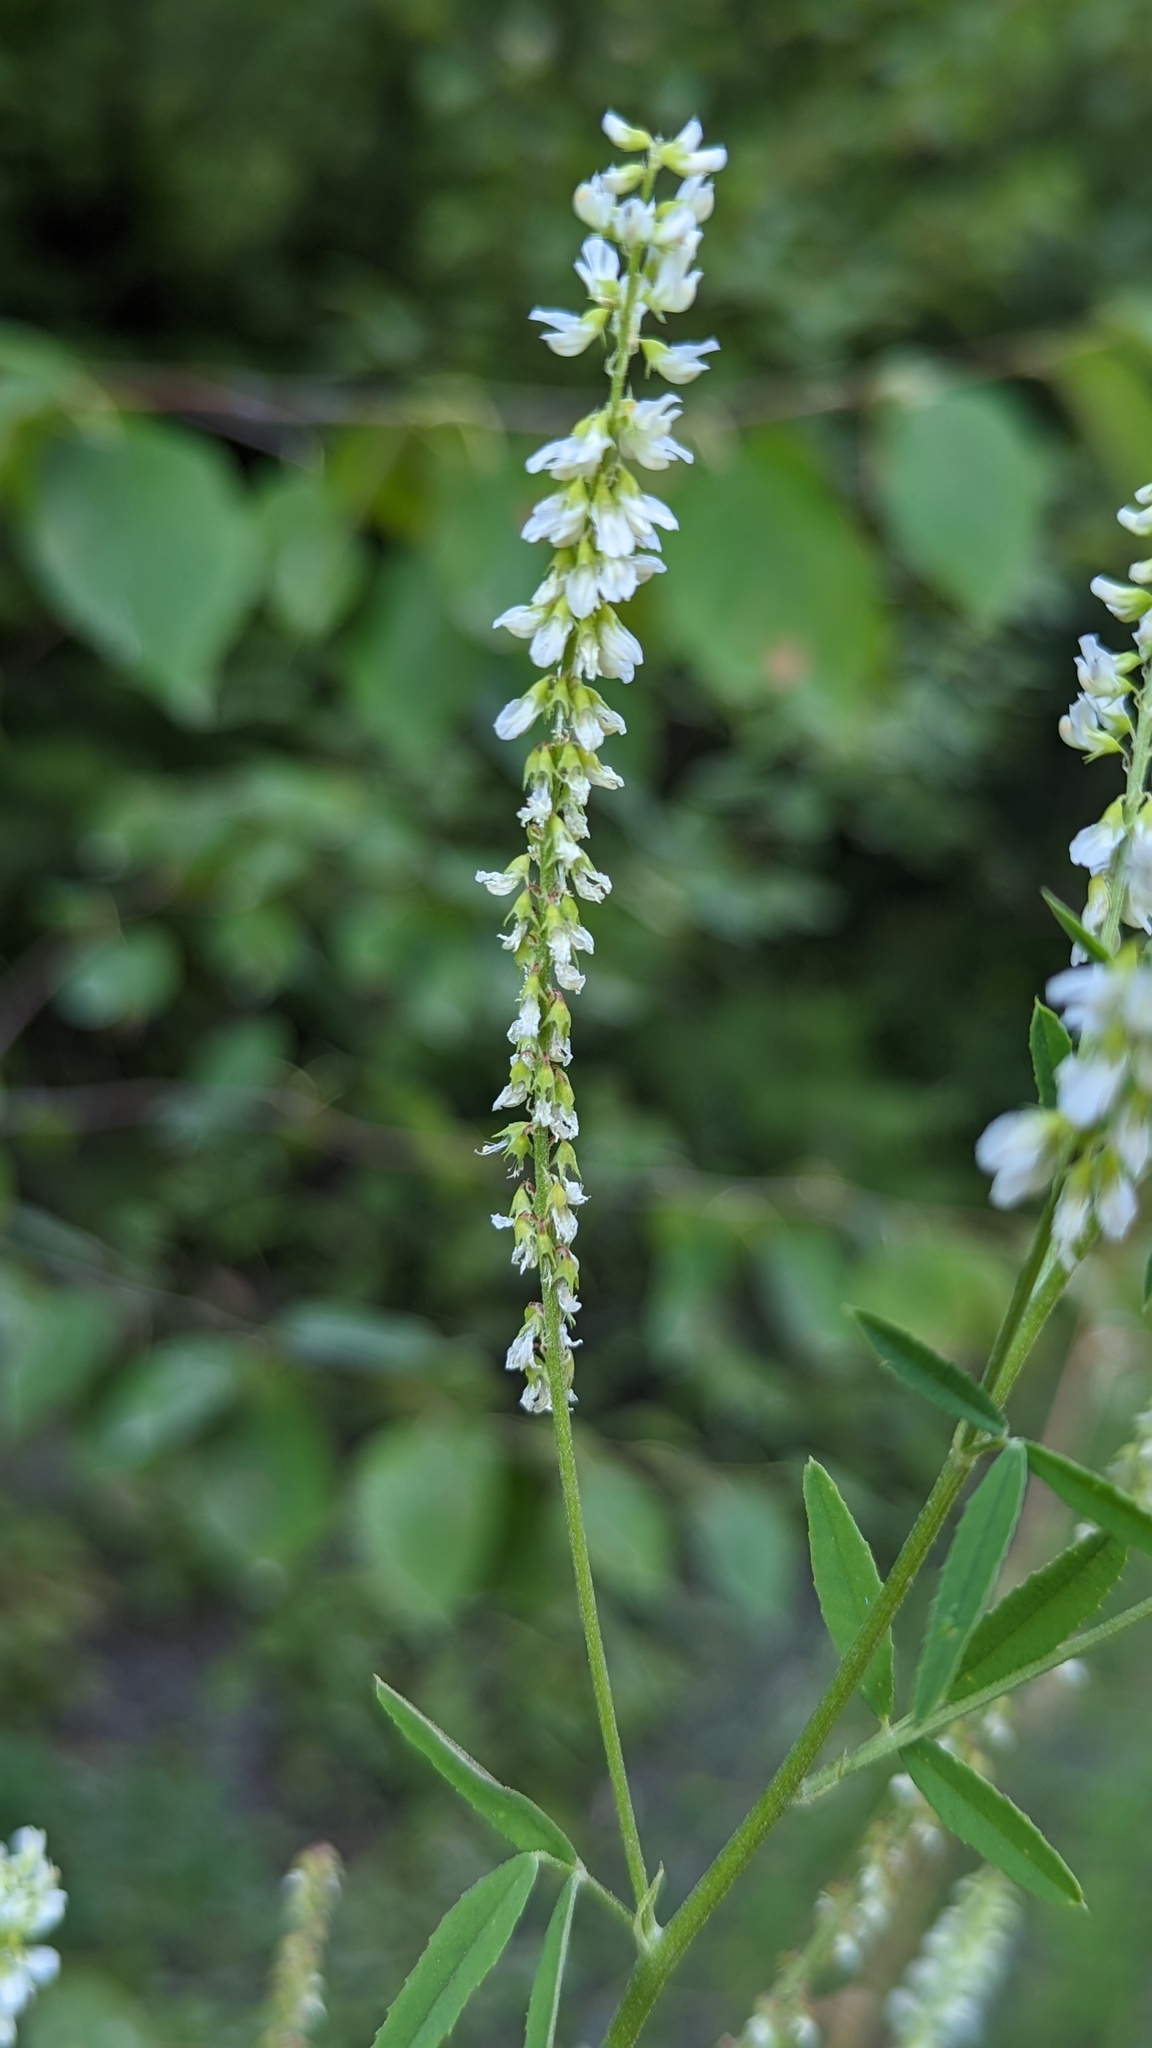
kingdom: Plantae
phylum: Tracheophyta
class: Magnoliopsida
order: Fabales
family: Fabaceae
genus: Melilotus
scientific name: Melilotus albus
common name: White melilot
